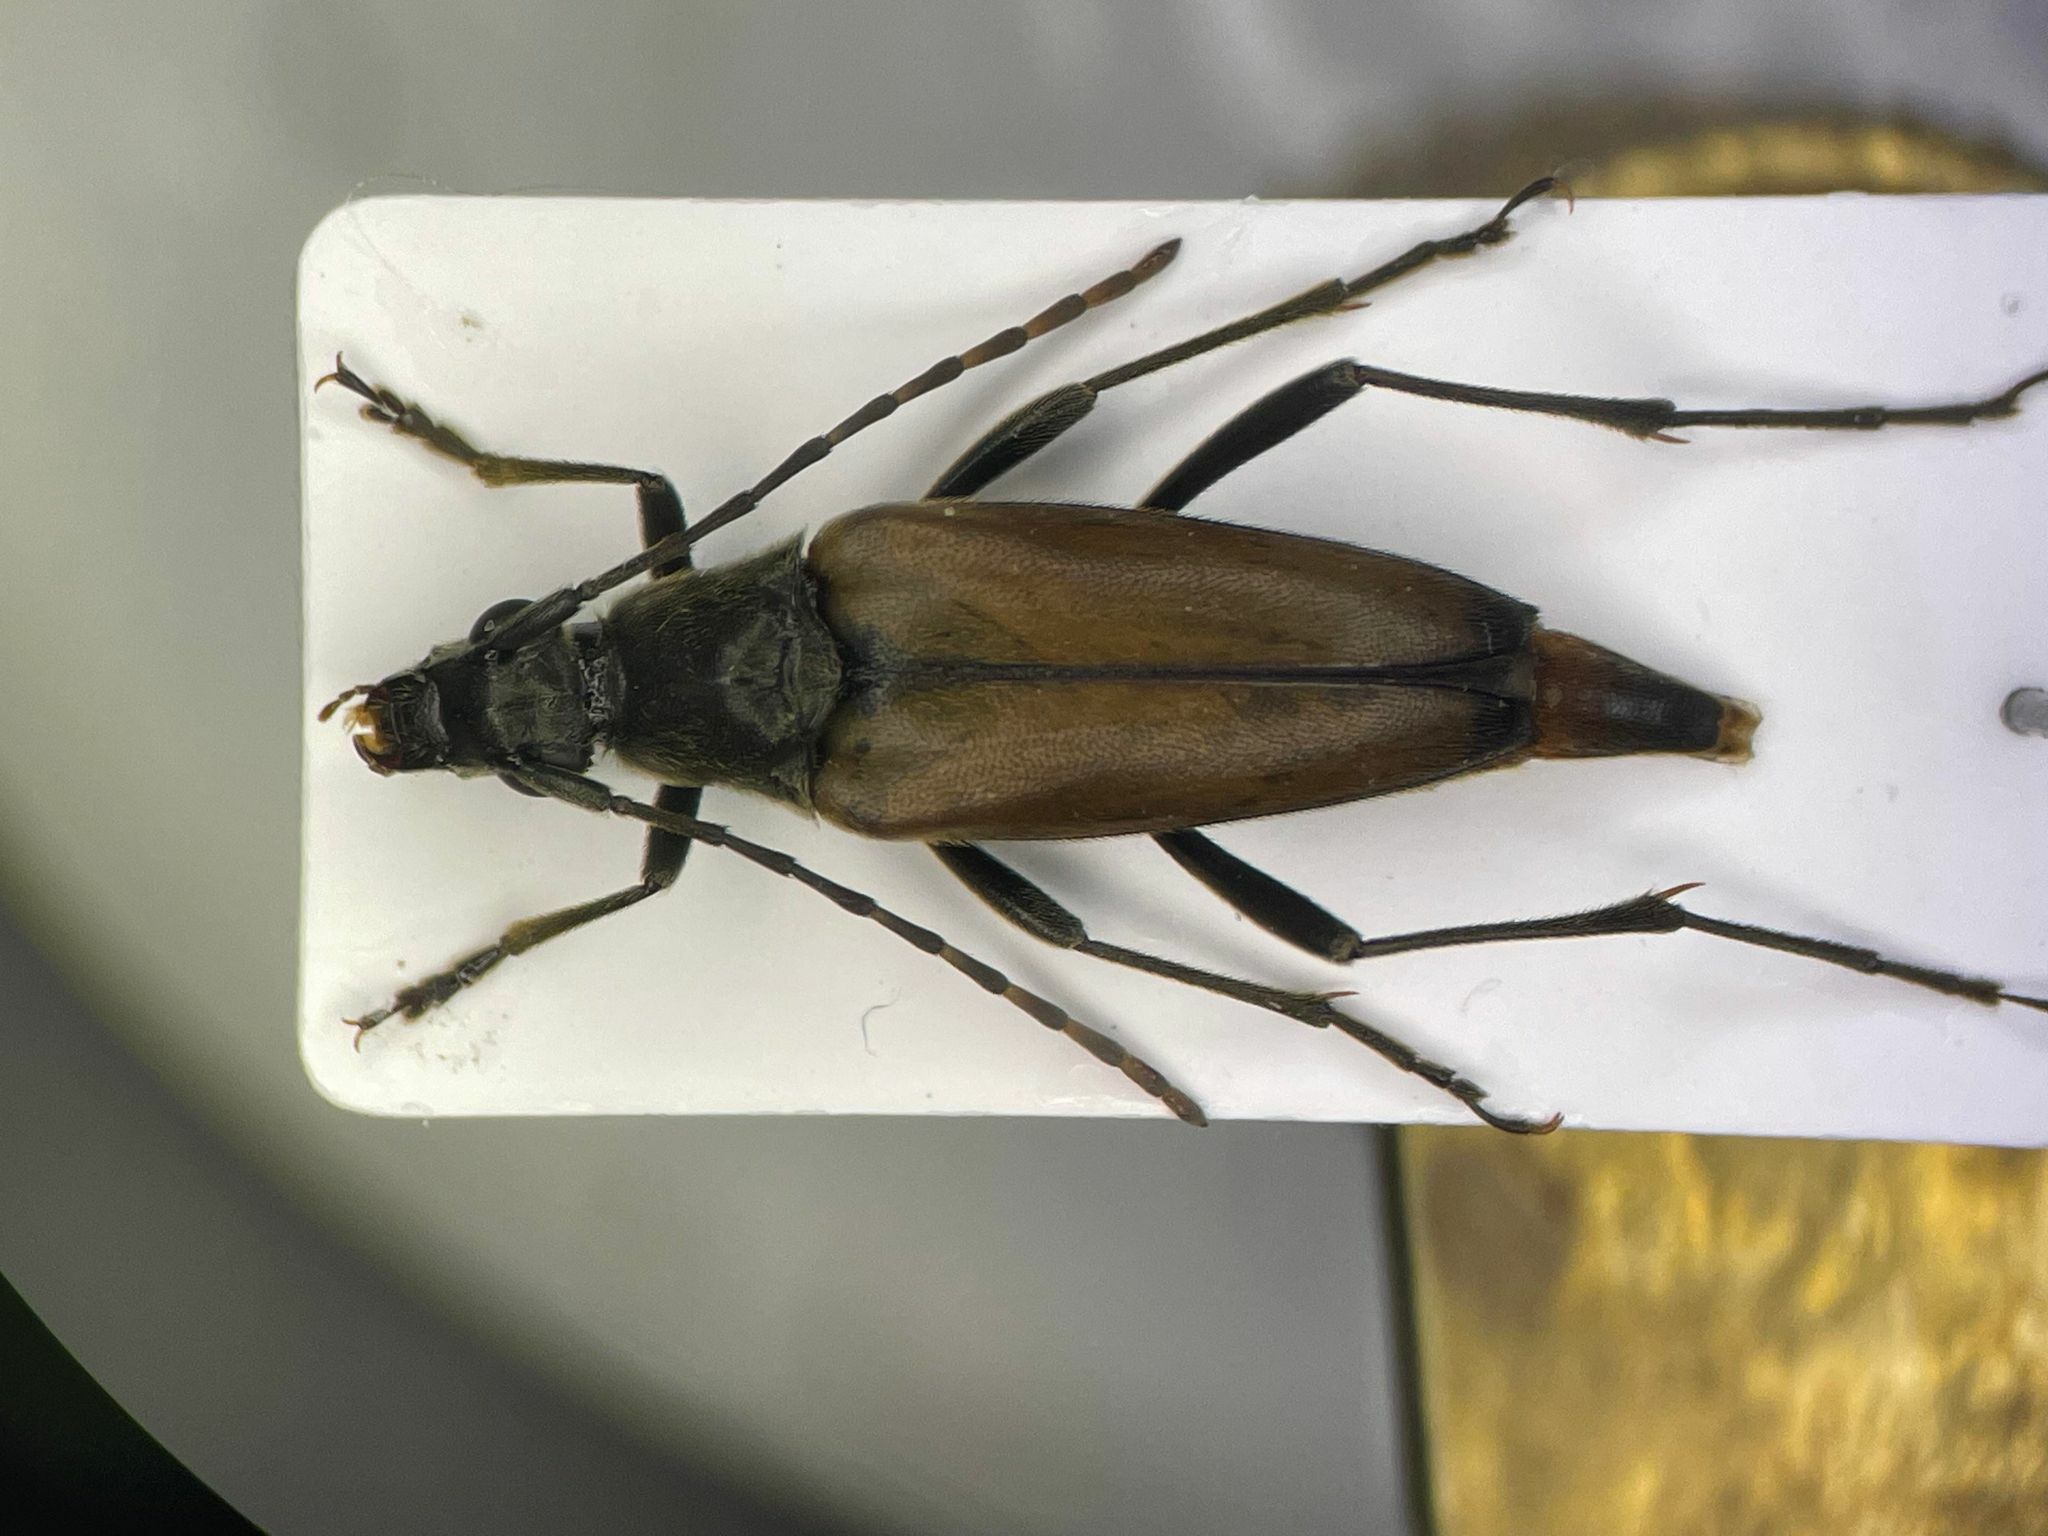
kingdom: Animalia
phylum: Arthropoda
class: Insecta
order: Coleoptera
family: Cerambycidae
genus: Etorofus
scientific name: Etorofus
